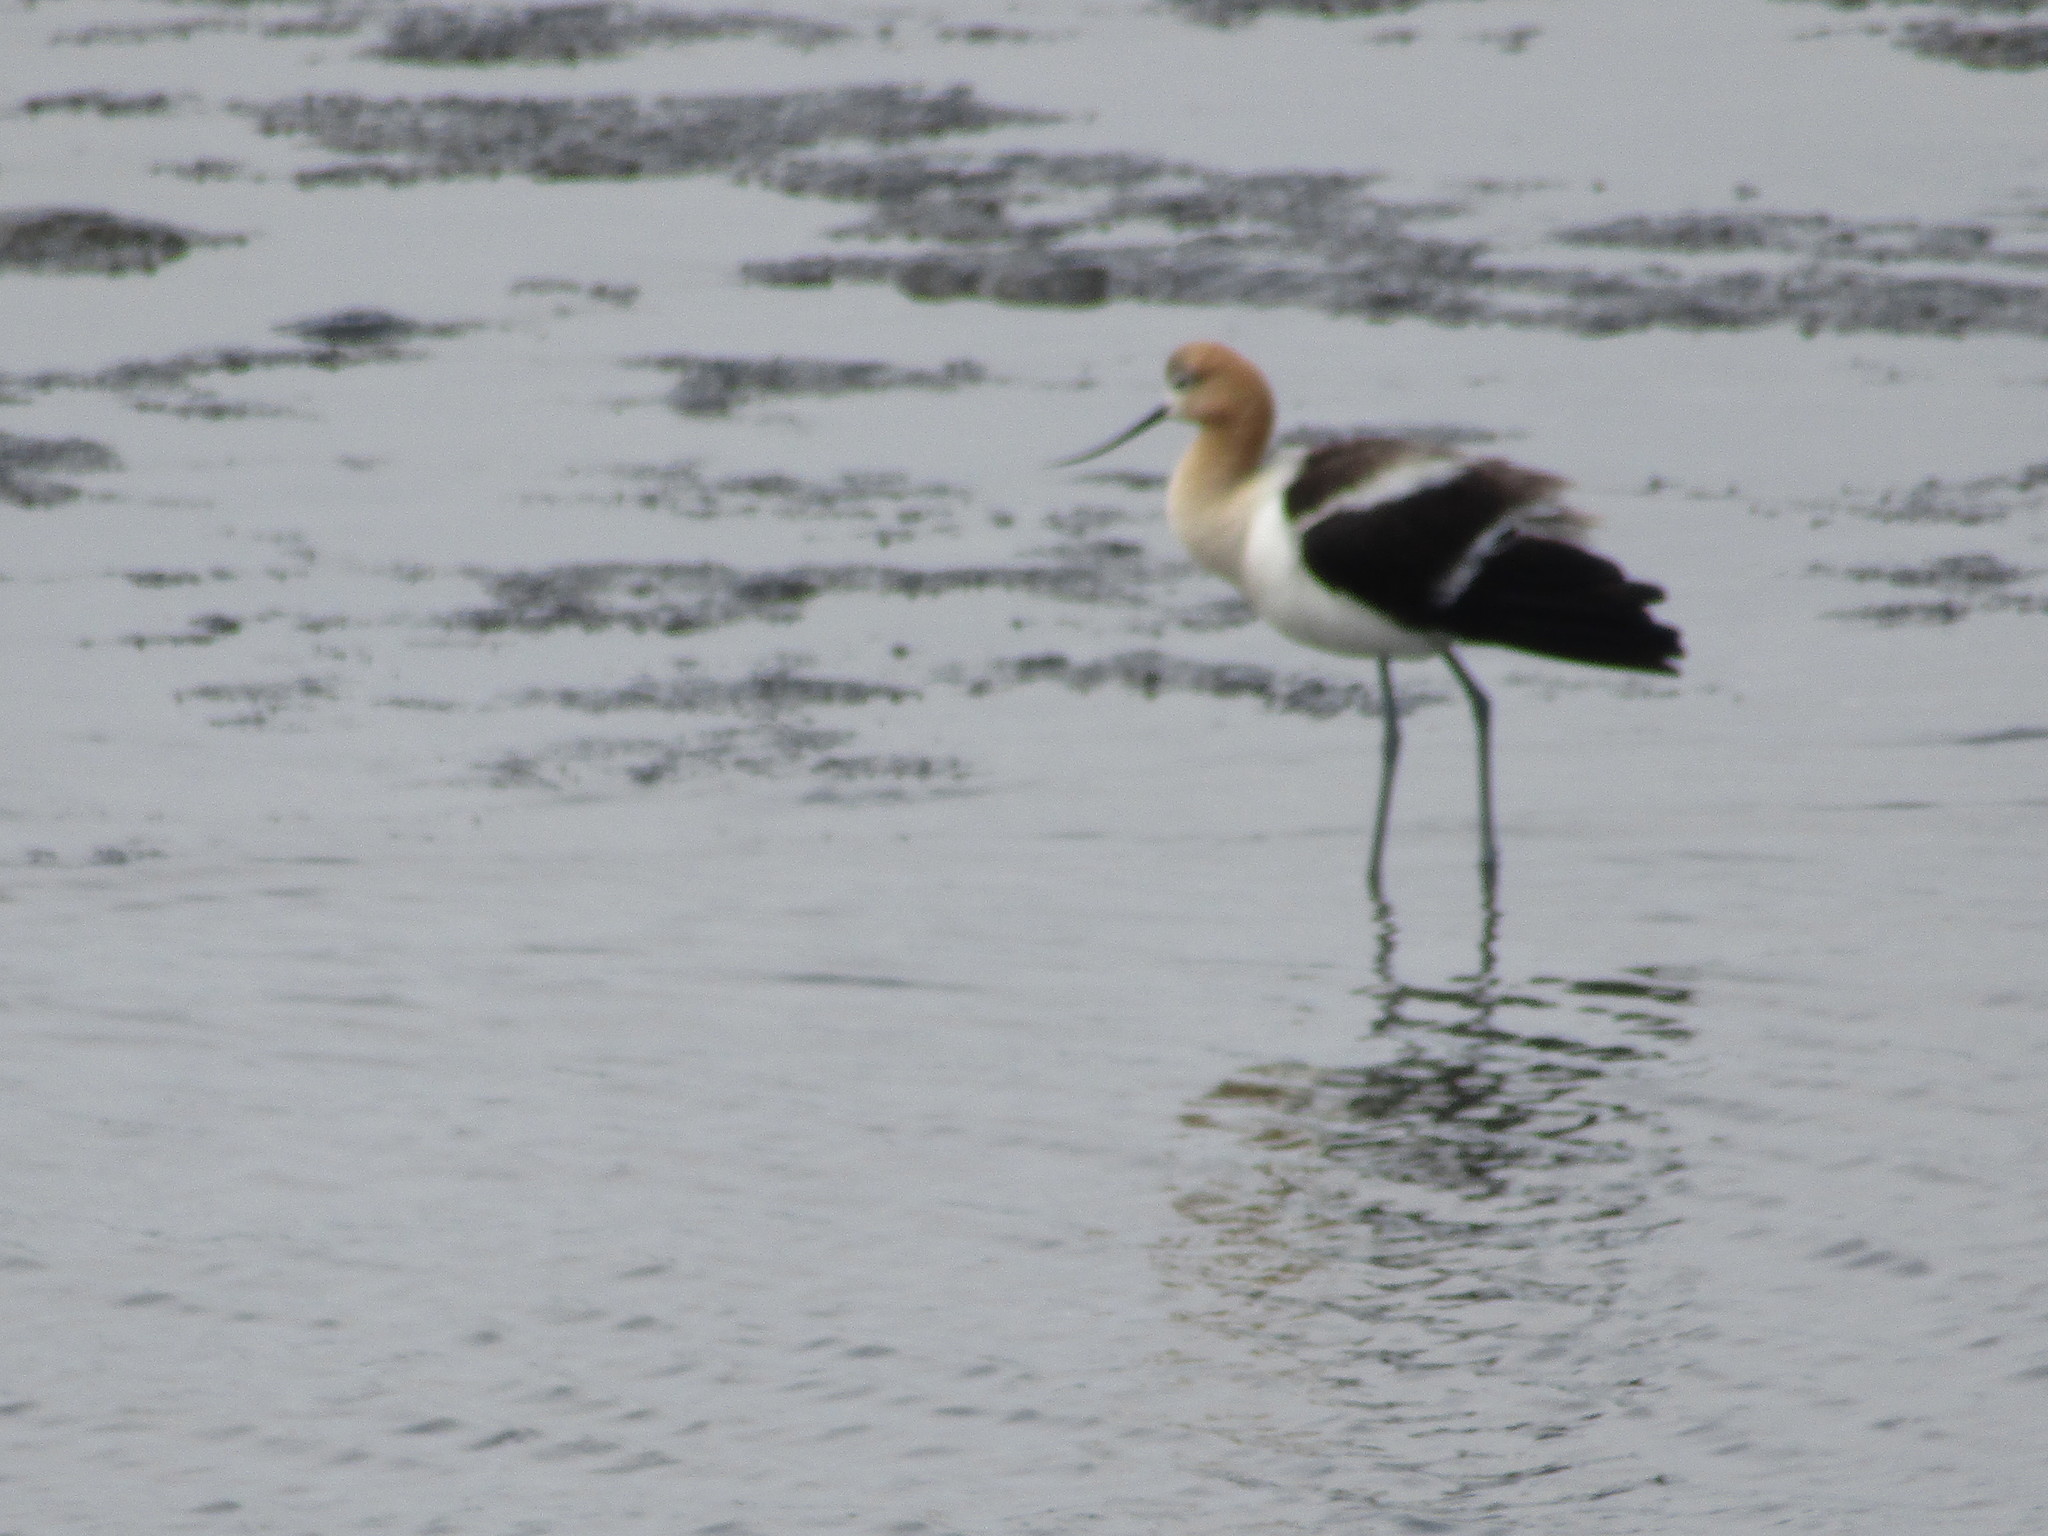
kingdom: Animalia
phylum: Chordata
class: Aves
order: Charadriiformes
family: Recurvirostridae
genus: Recurvirostra
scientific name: Recurvirostra americana
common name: American avocet
